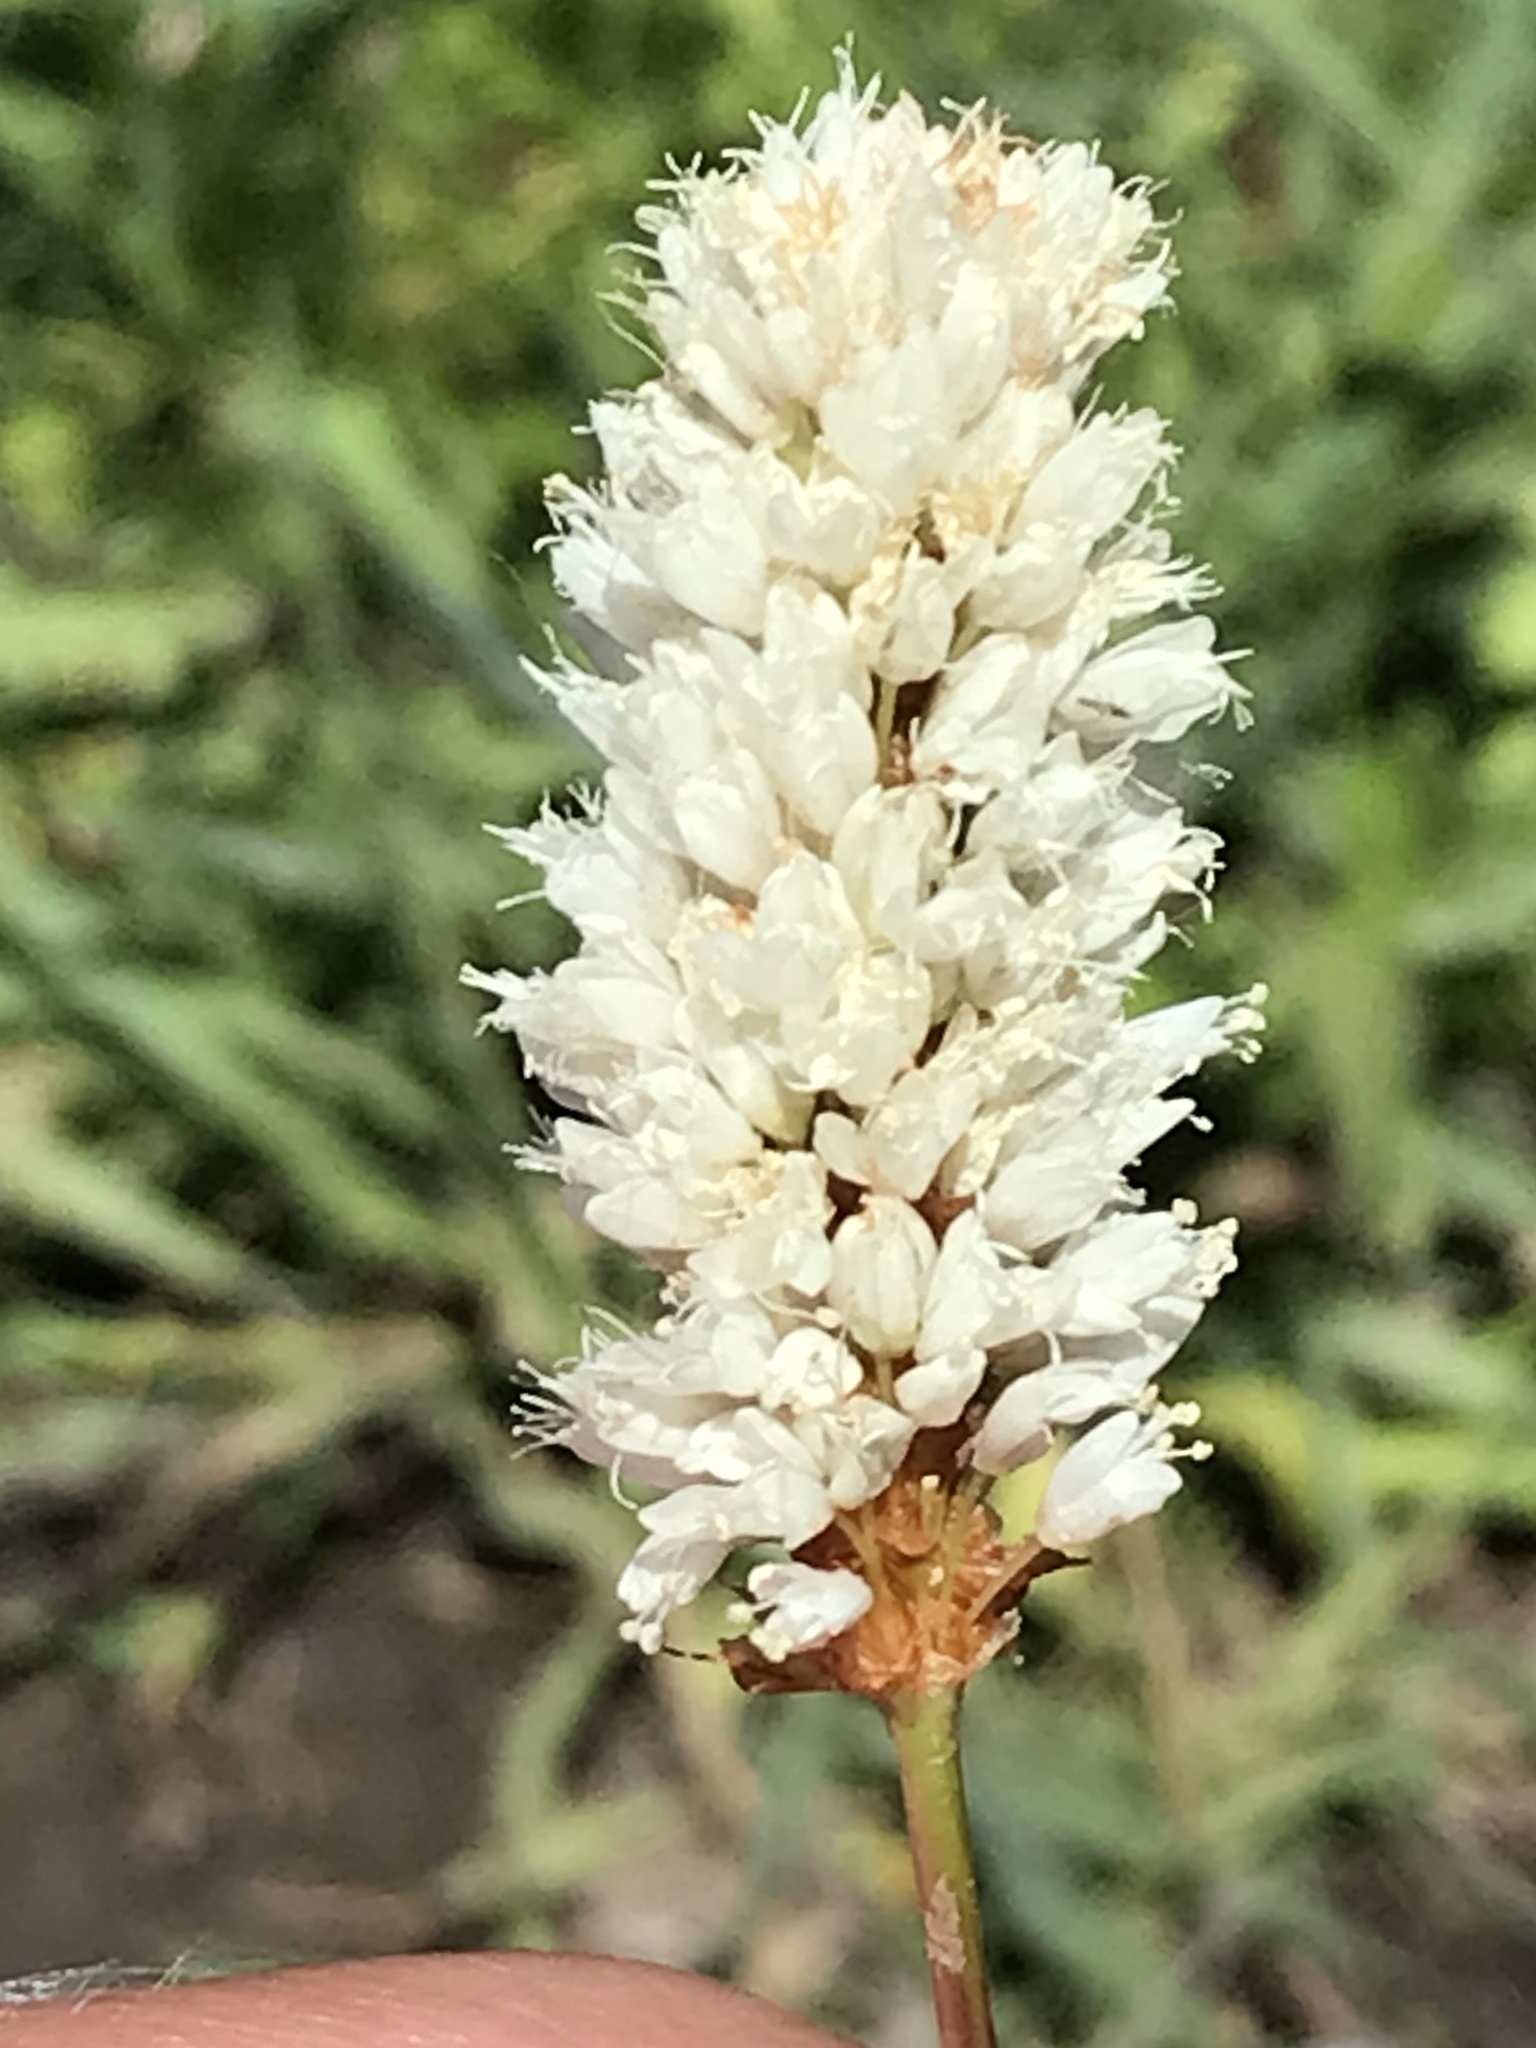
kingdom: Plantae
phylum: Tracheophyta
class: Magnoliopsida
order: Caryophyllales
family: Polygonaceae
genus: Bistorta
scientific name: Bistorta bistortoides
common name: American bistort
